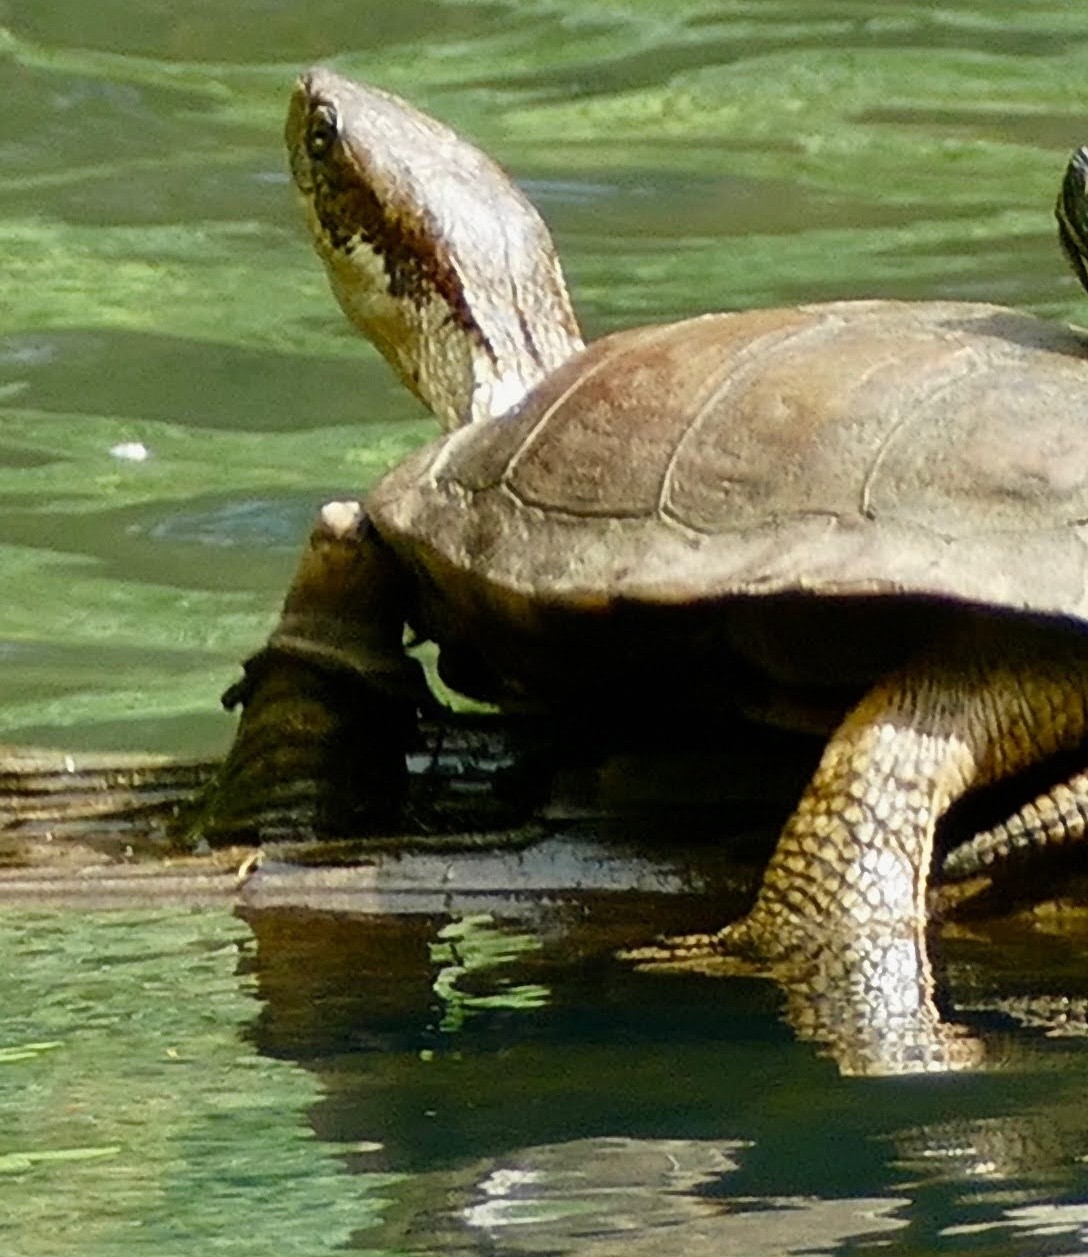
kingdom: Animalia
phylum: Chordata
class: Testudines
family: Emydidae
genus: Actinemys
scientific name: Actinemys marmorata
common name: Western pond turtle
